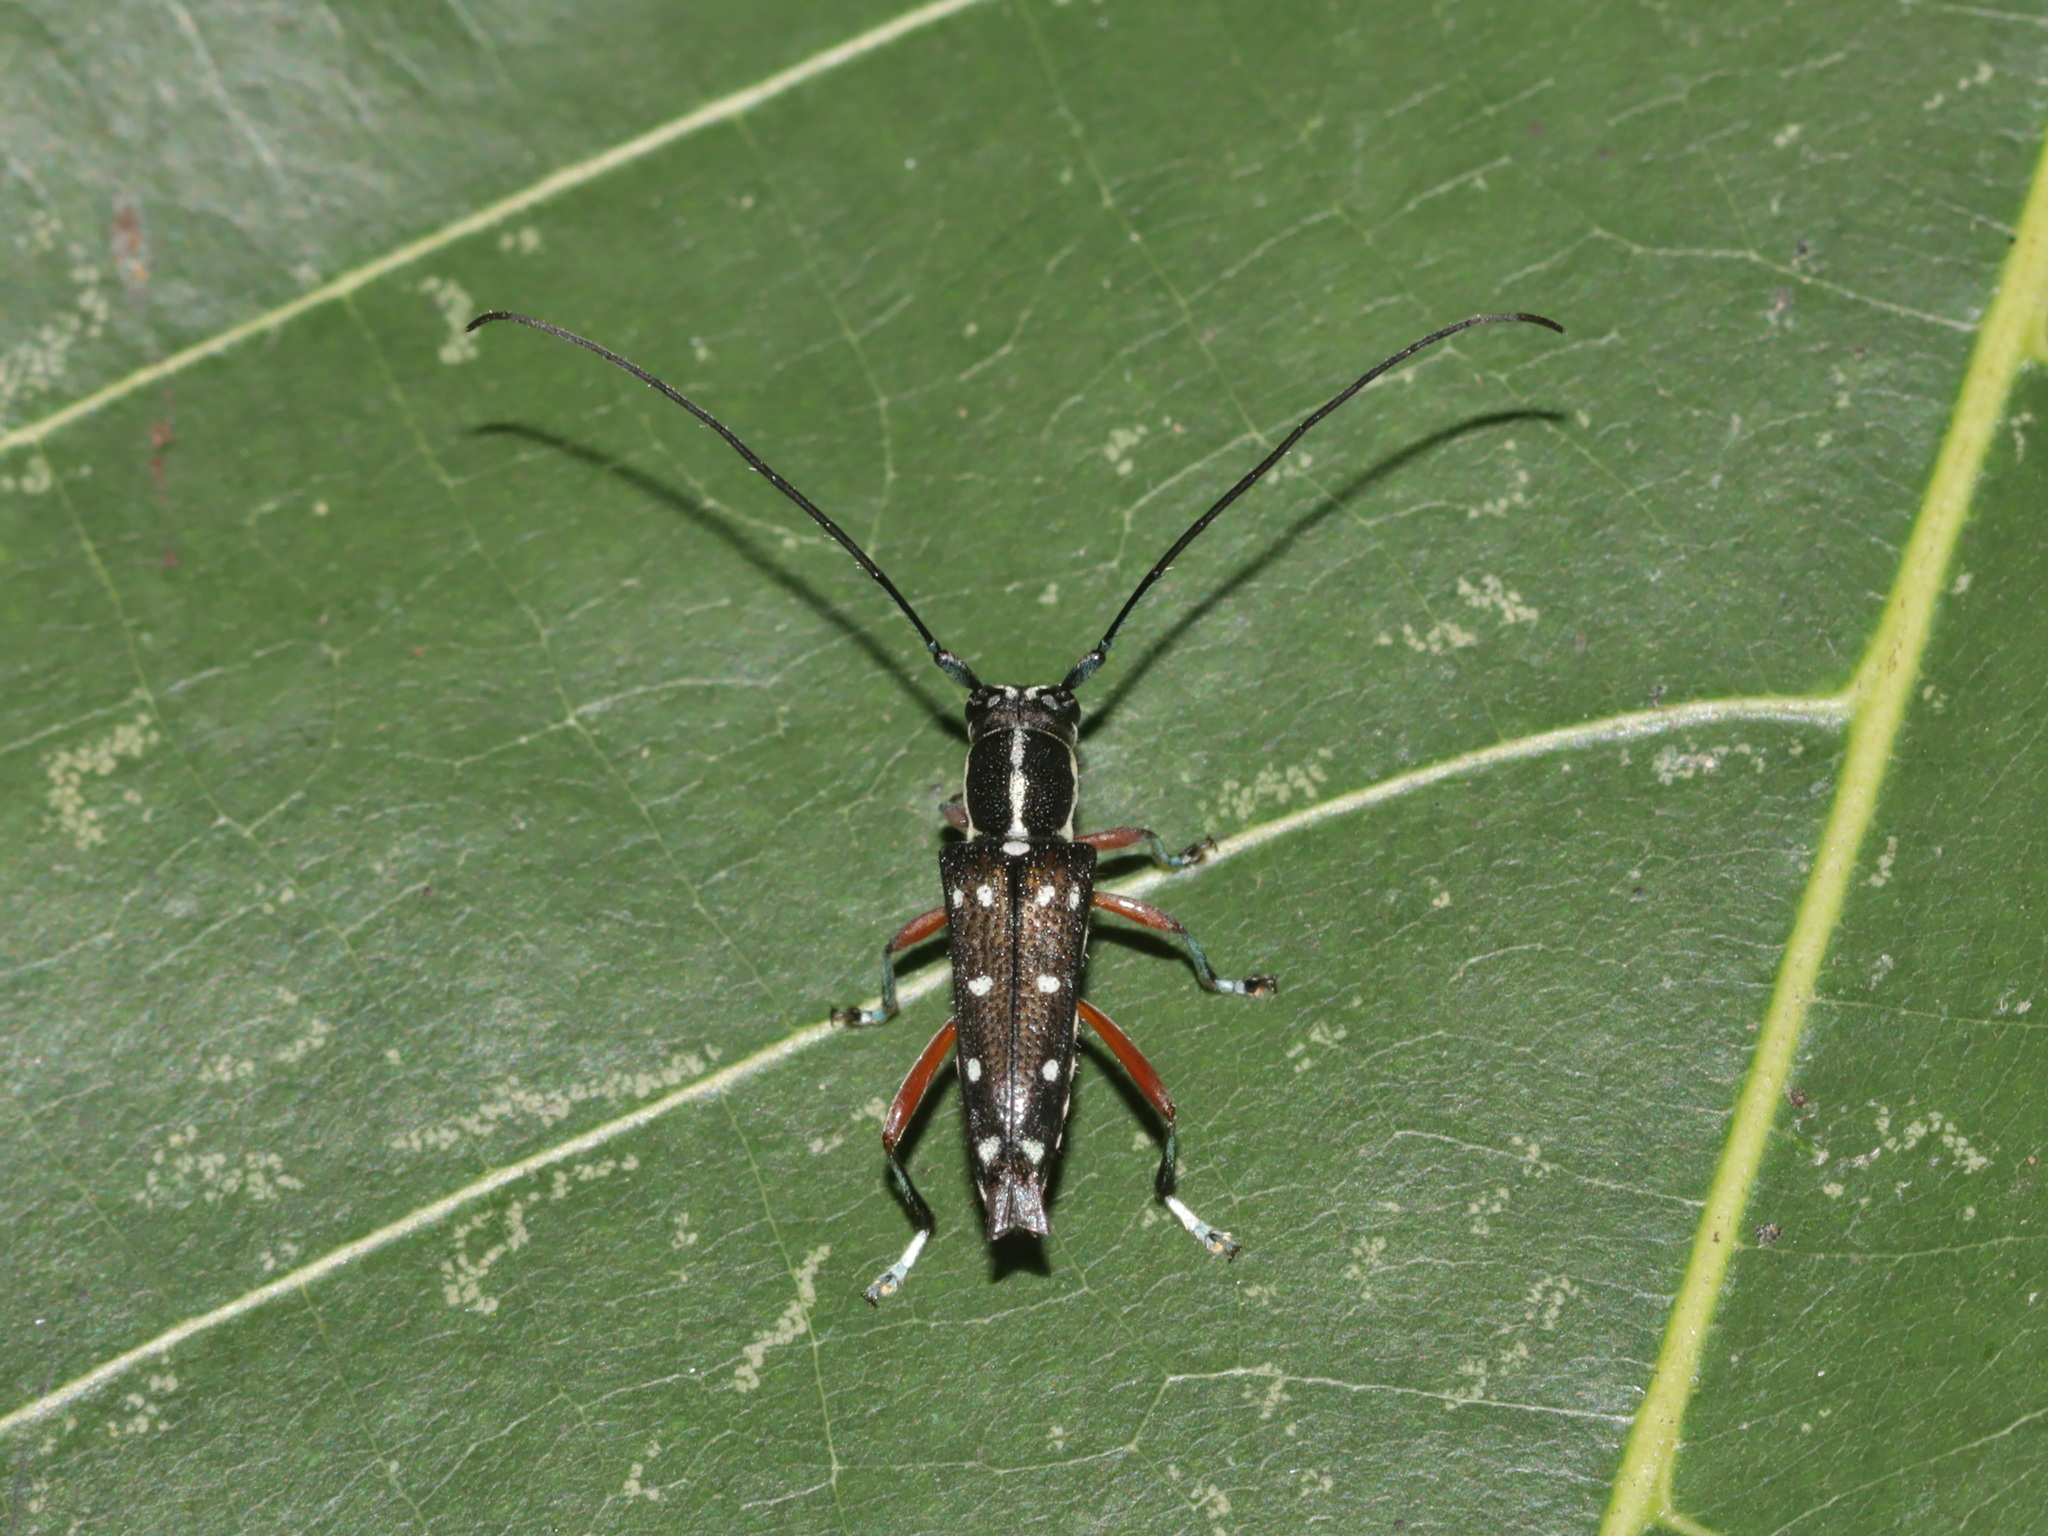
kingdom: Animalia
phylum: Arthropoda
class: Insecta
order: Coleoptera
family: Cerambycidae
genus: Glenea
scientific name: Glenea tonkinea
